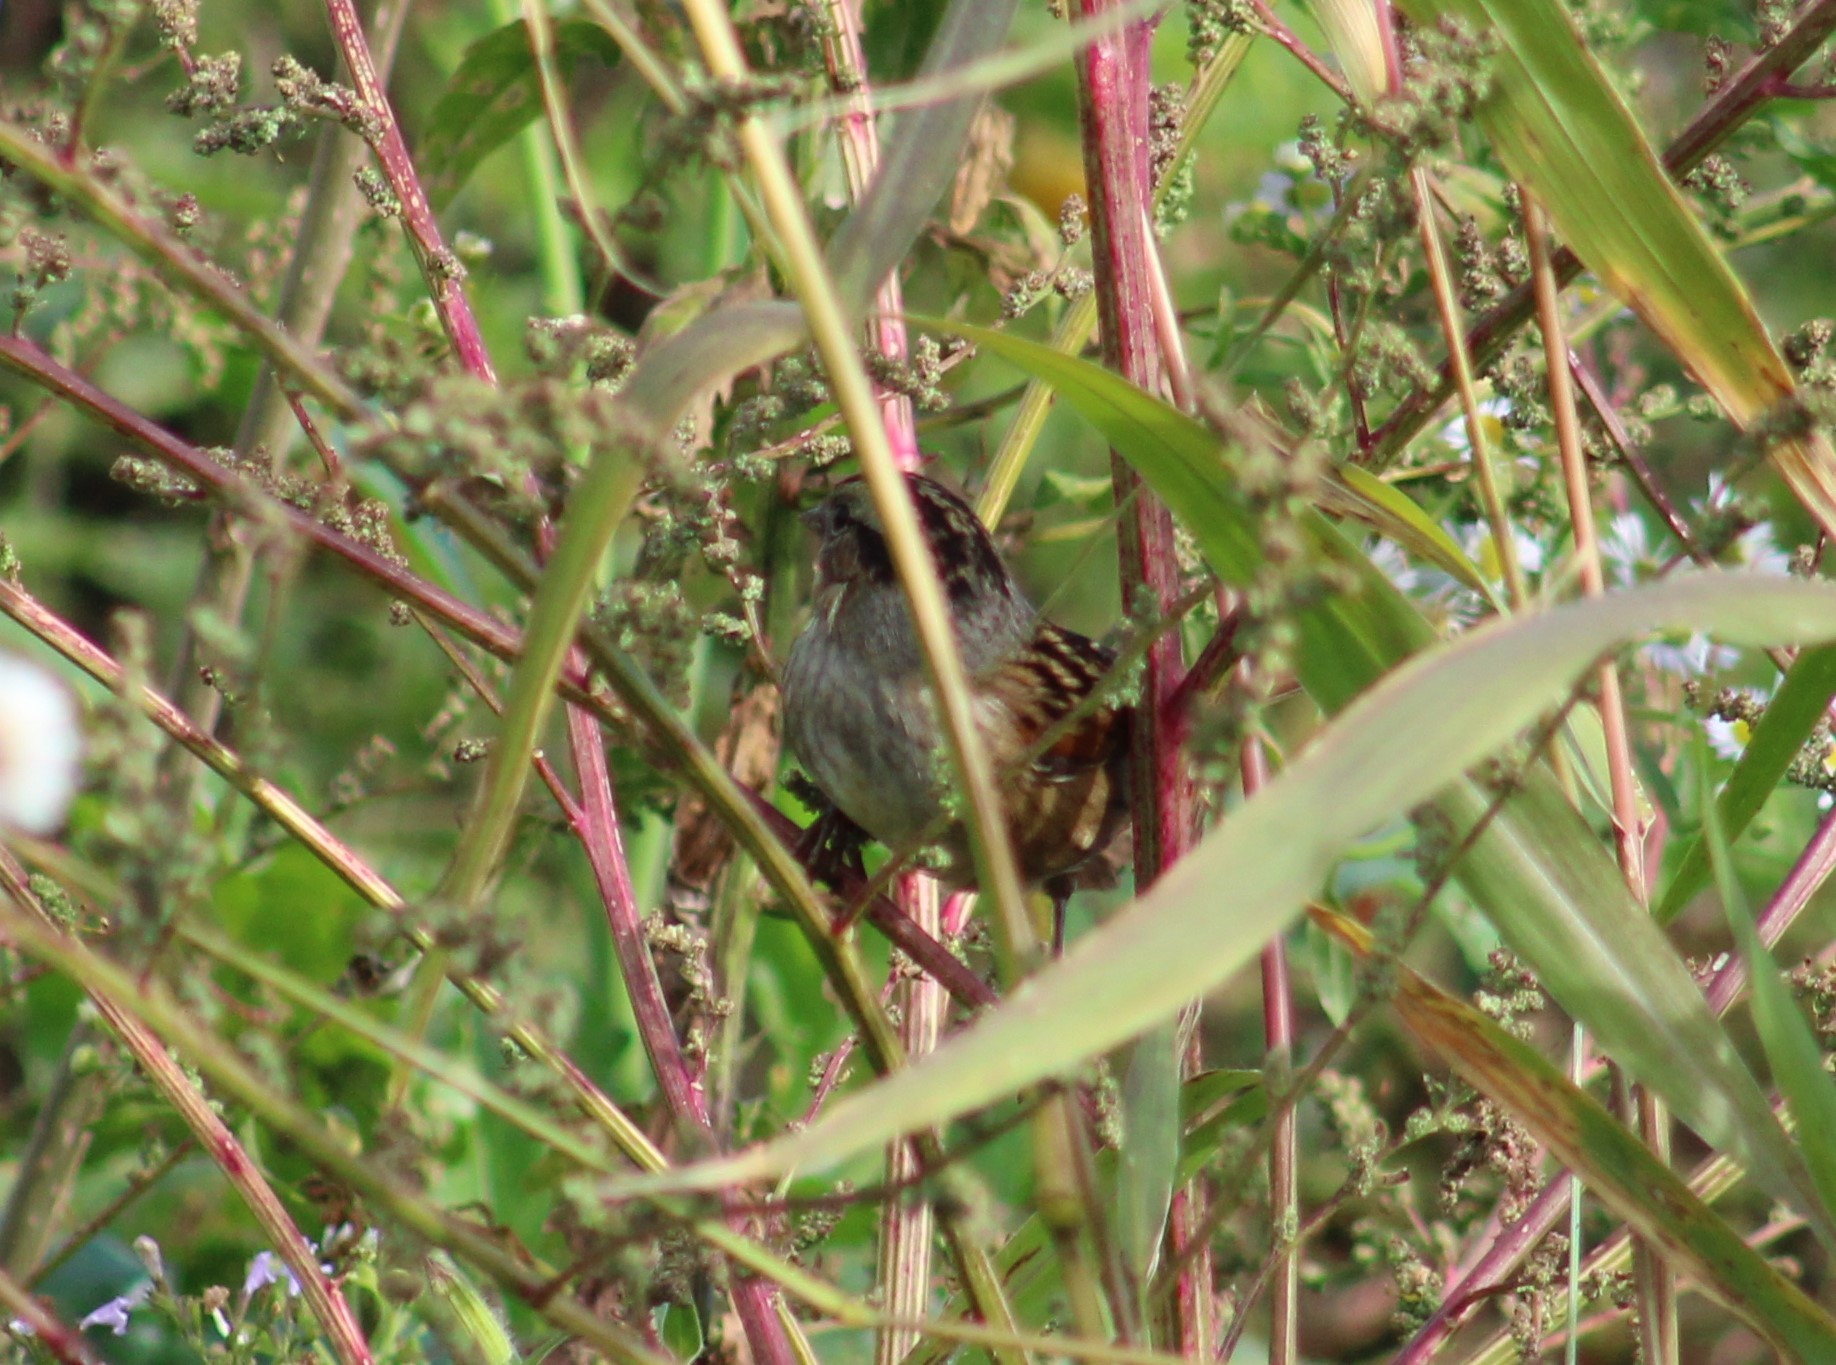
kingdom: Animalia
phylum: Chordata
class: Aves
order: Passeriformes
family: Passerellidae
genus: Melospiza
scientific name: Melospiza georgiana
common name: Swamp sparrow
